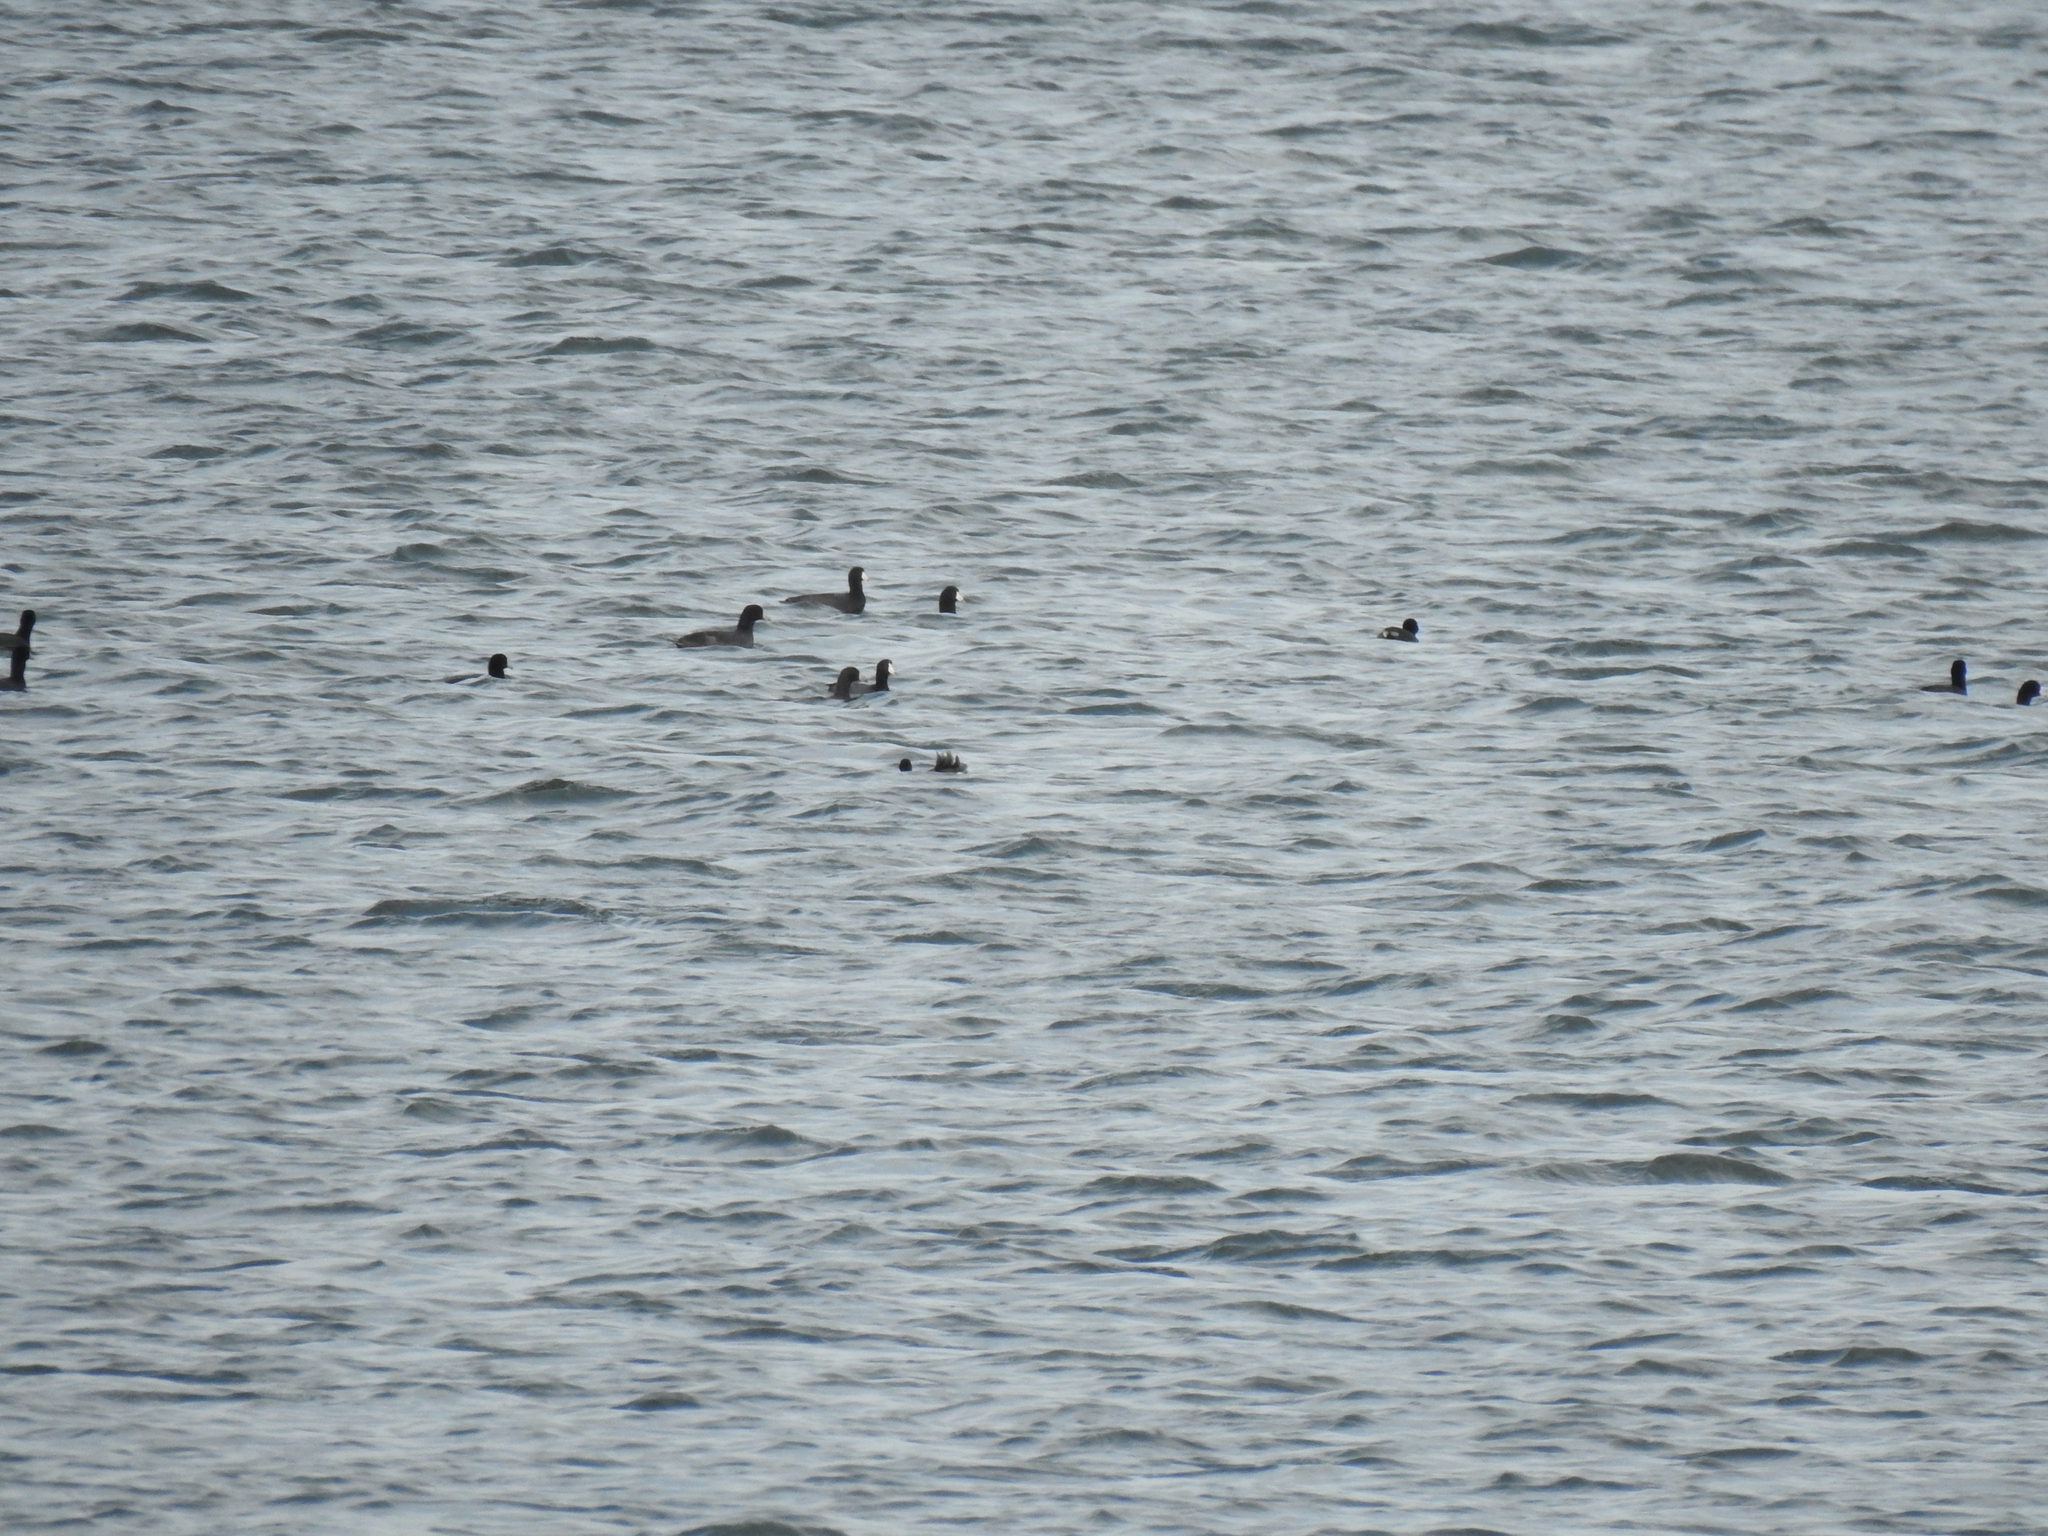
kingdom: Animalia
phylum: Chordata
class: Aves
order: Gruiformes
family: Rallidae
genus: Fulica
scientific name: Fulica americana
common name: American coot
